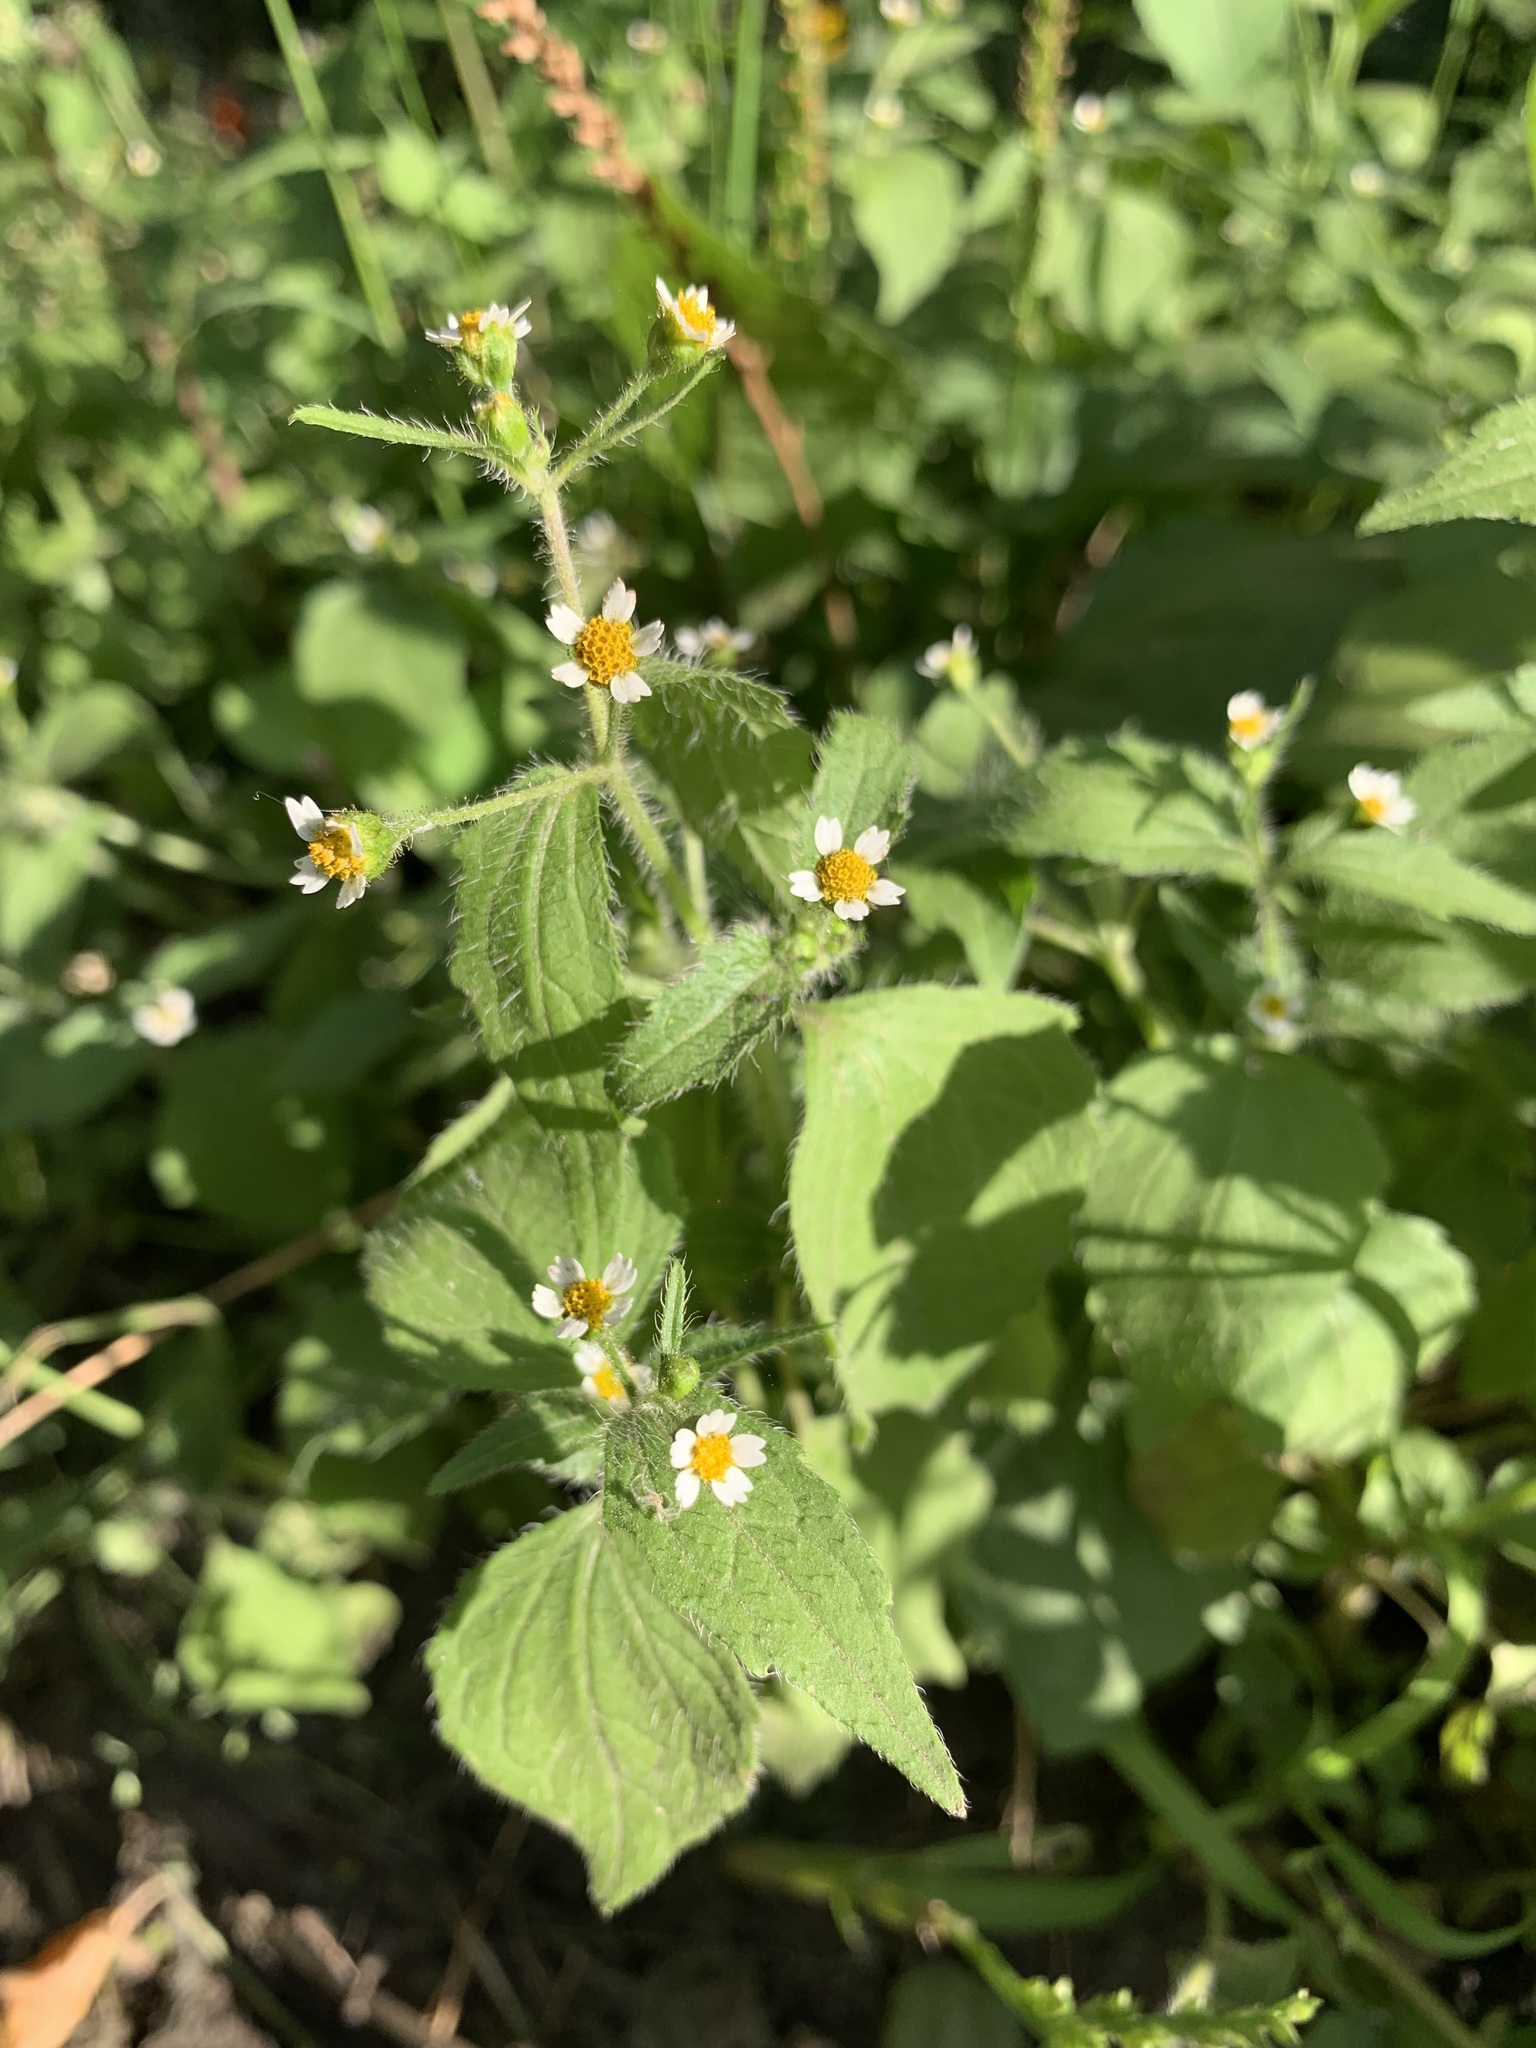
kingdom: Plantae
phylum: Tracheophyta
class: Magnoliopsida
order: Asterales
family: Asteraceae
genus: Galinsoga
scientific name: Galinsoga quadriradiata
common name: Shaggy soldier
